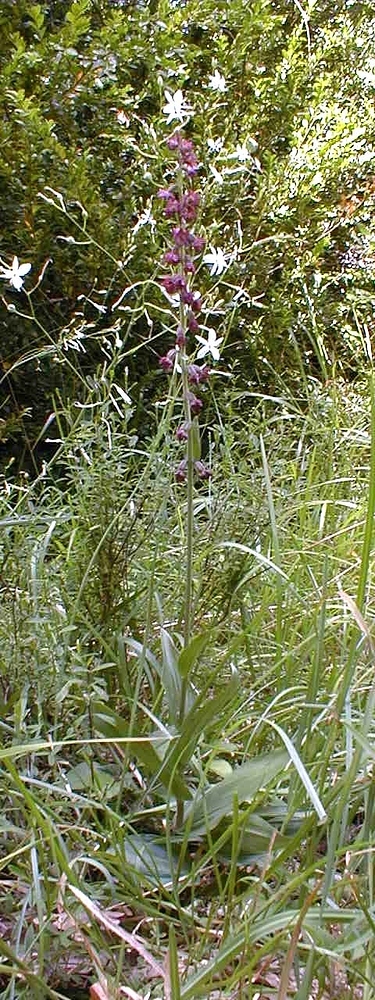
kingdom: Plantae
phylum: Tracheophyta
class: Liliopsida
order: Asparagales
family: Orchidaceae
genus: Epipactis
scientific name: Epipactis atrorubens
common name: Dark-red helleborine
